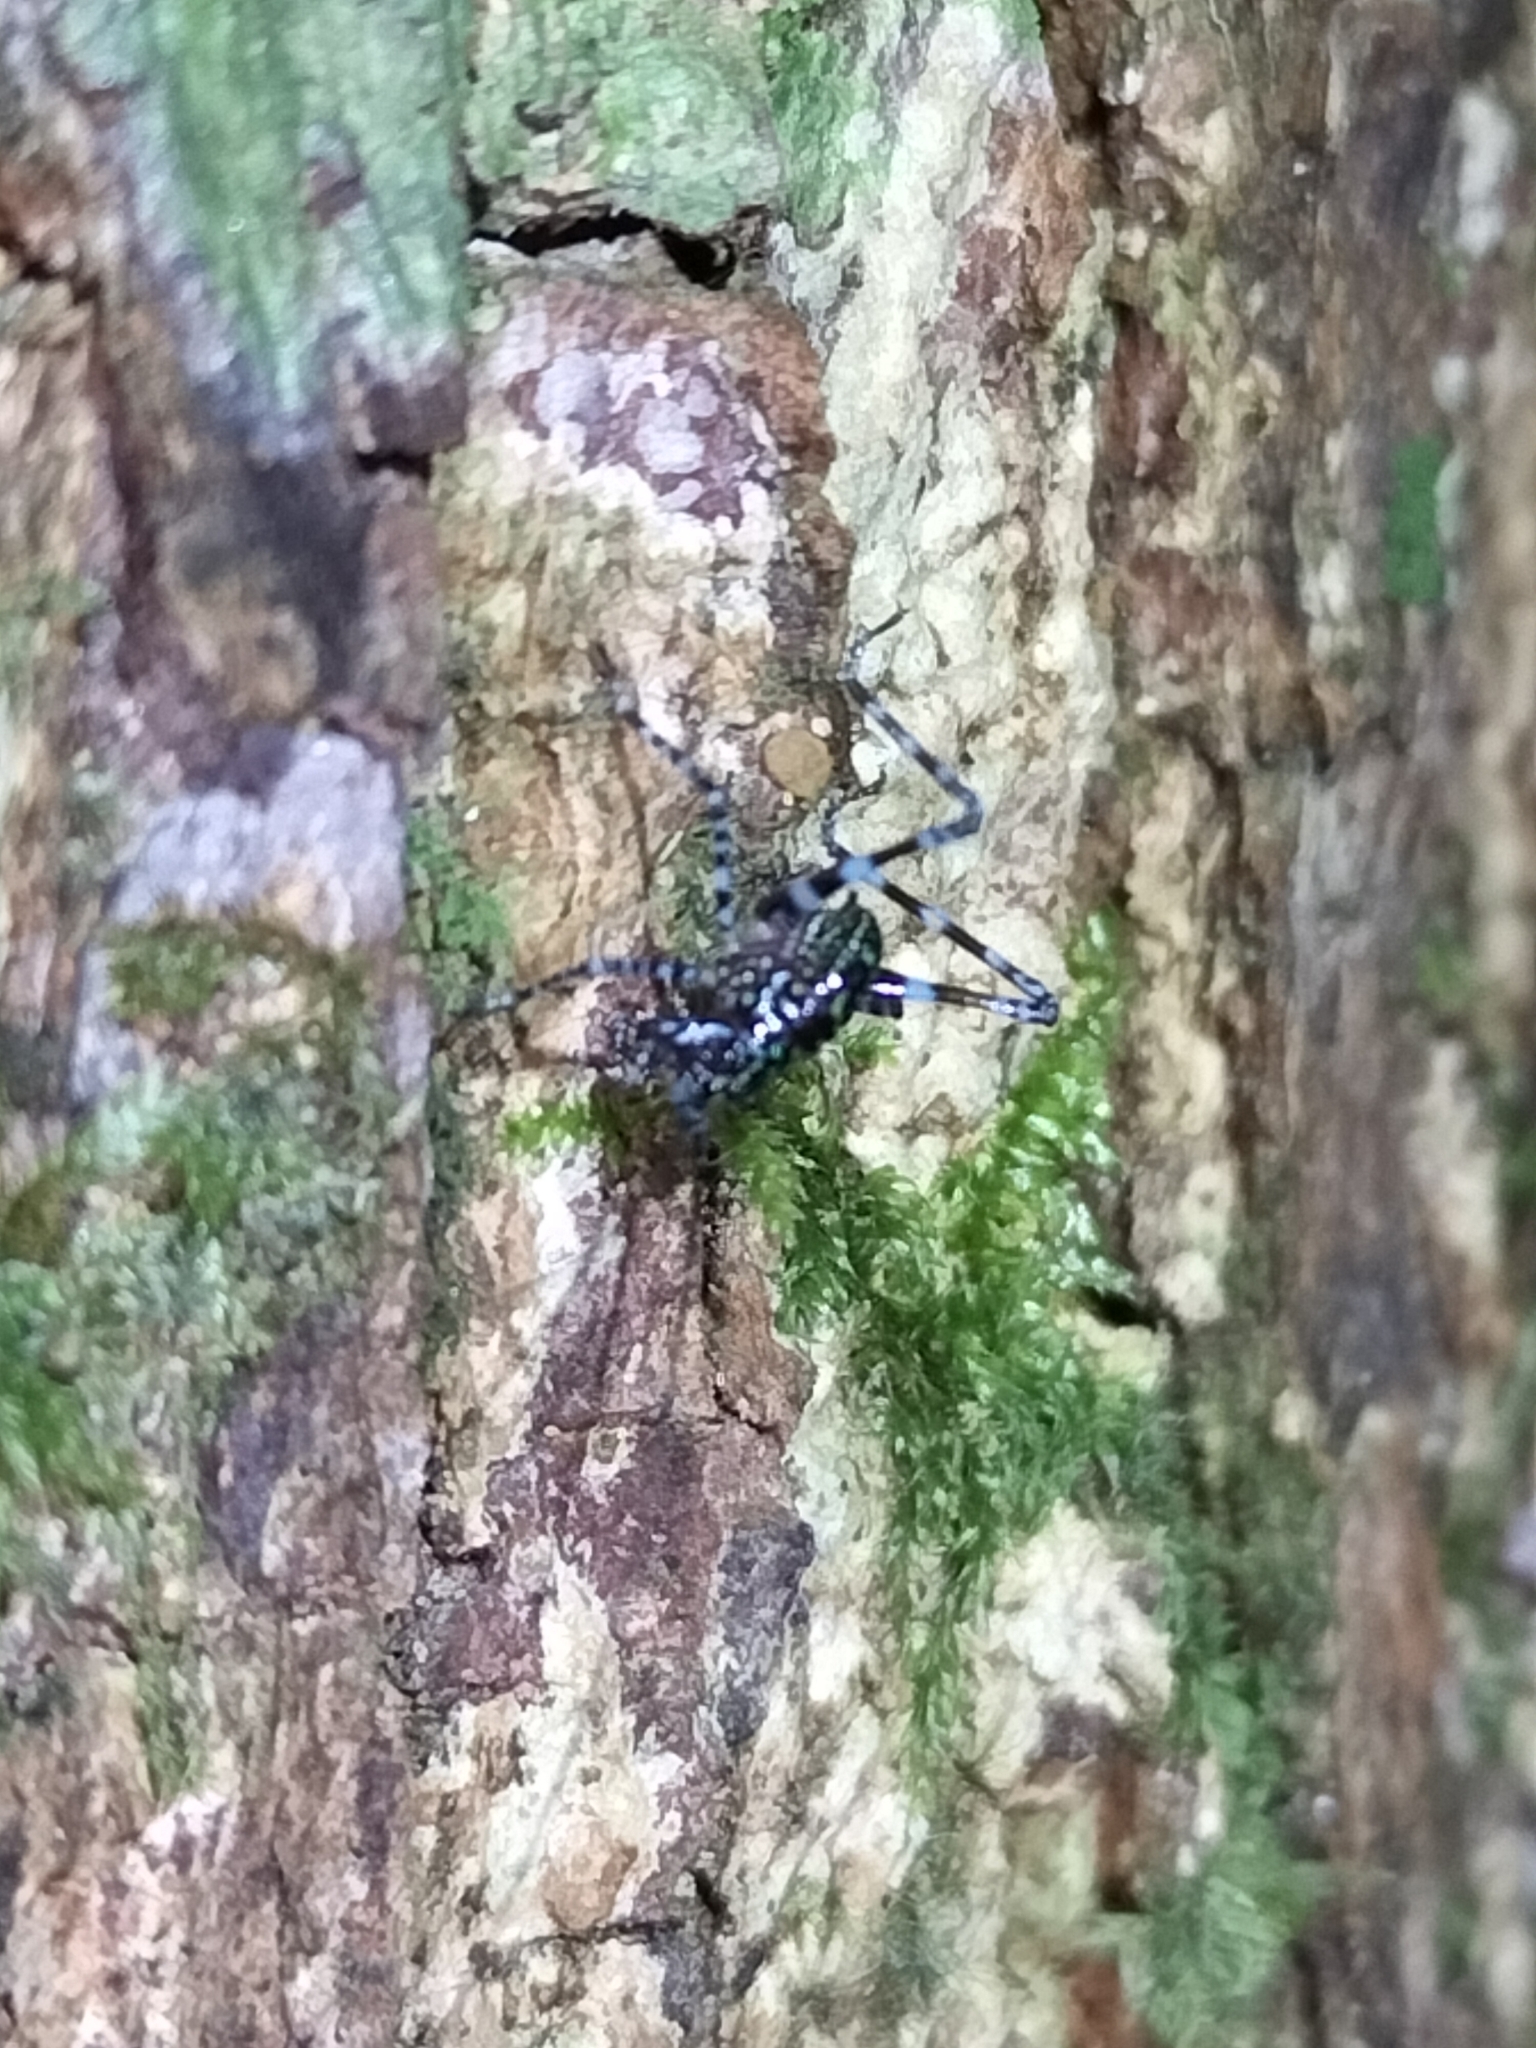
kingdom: Animalia
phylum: Arthropoda
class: Insecta
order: Orthoptera
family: Tettigoniidae
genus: Ozphyllum
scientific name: Ozphyllum kuranda
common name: Kuranda bush katydid
